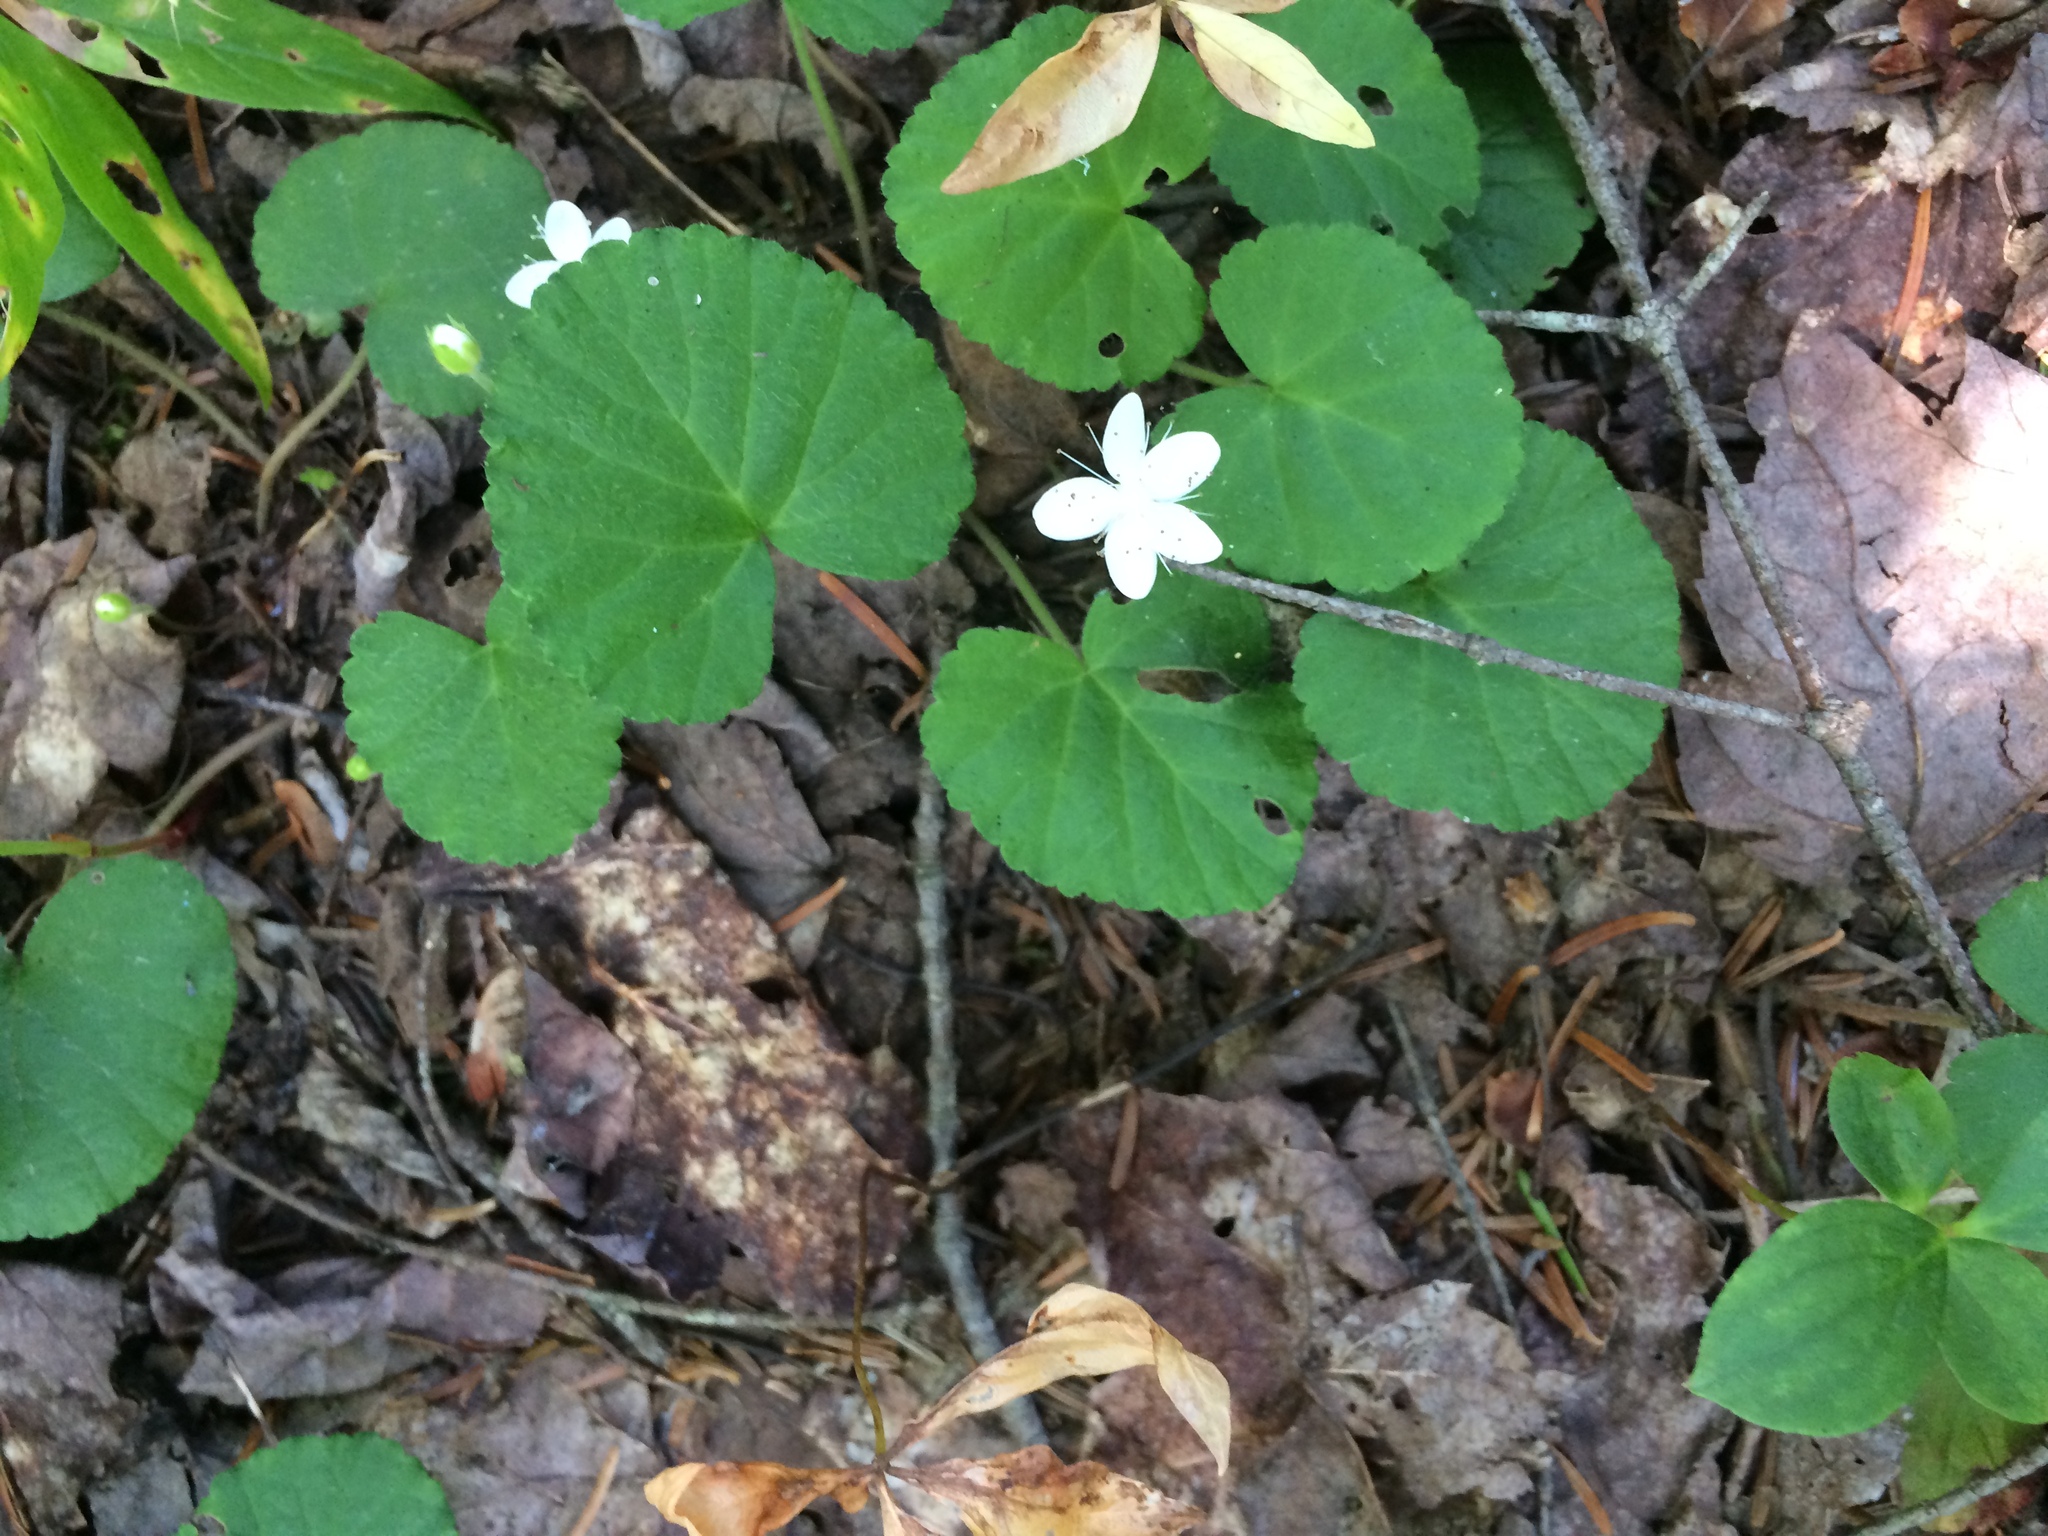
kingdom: Plantae
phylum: Tracheophyta
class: Magnoliopsida
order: Rosales
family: Rosaceae
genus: Dalibarda
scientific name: Dalibarda repens
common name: Dewdrop
